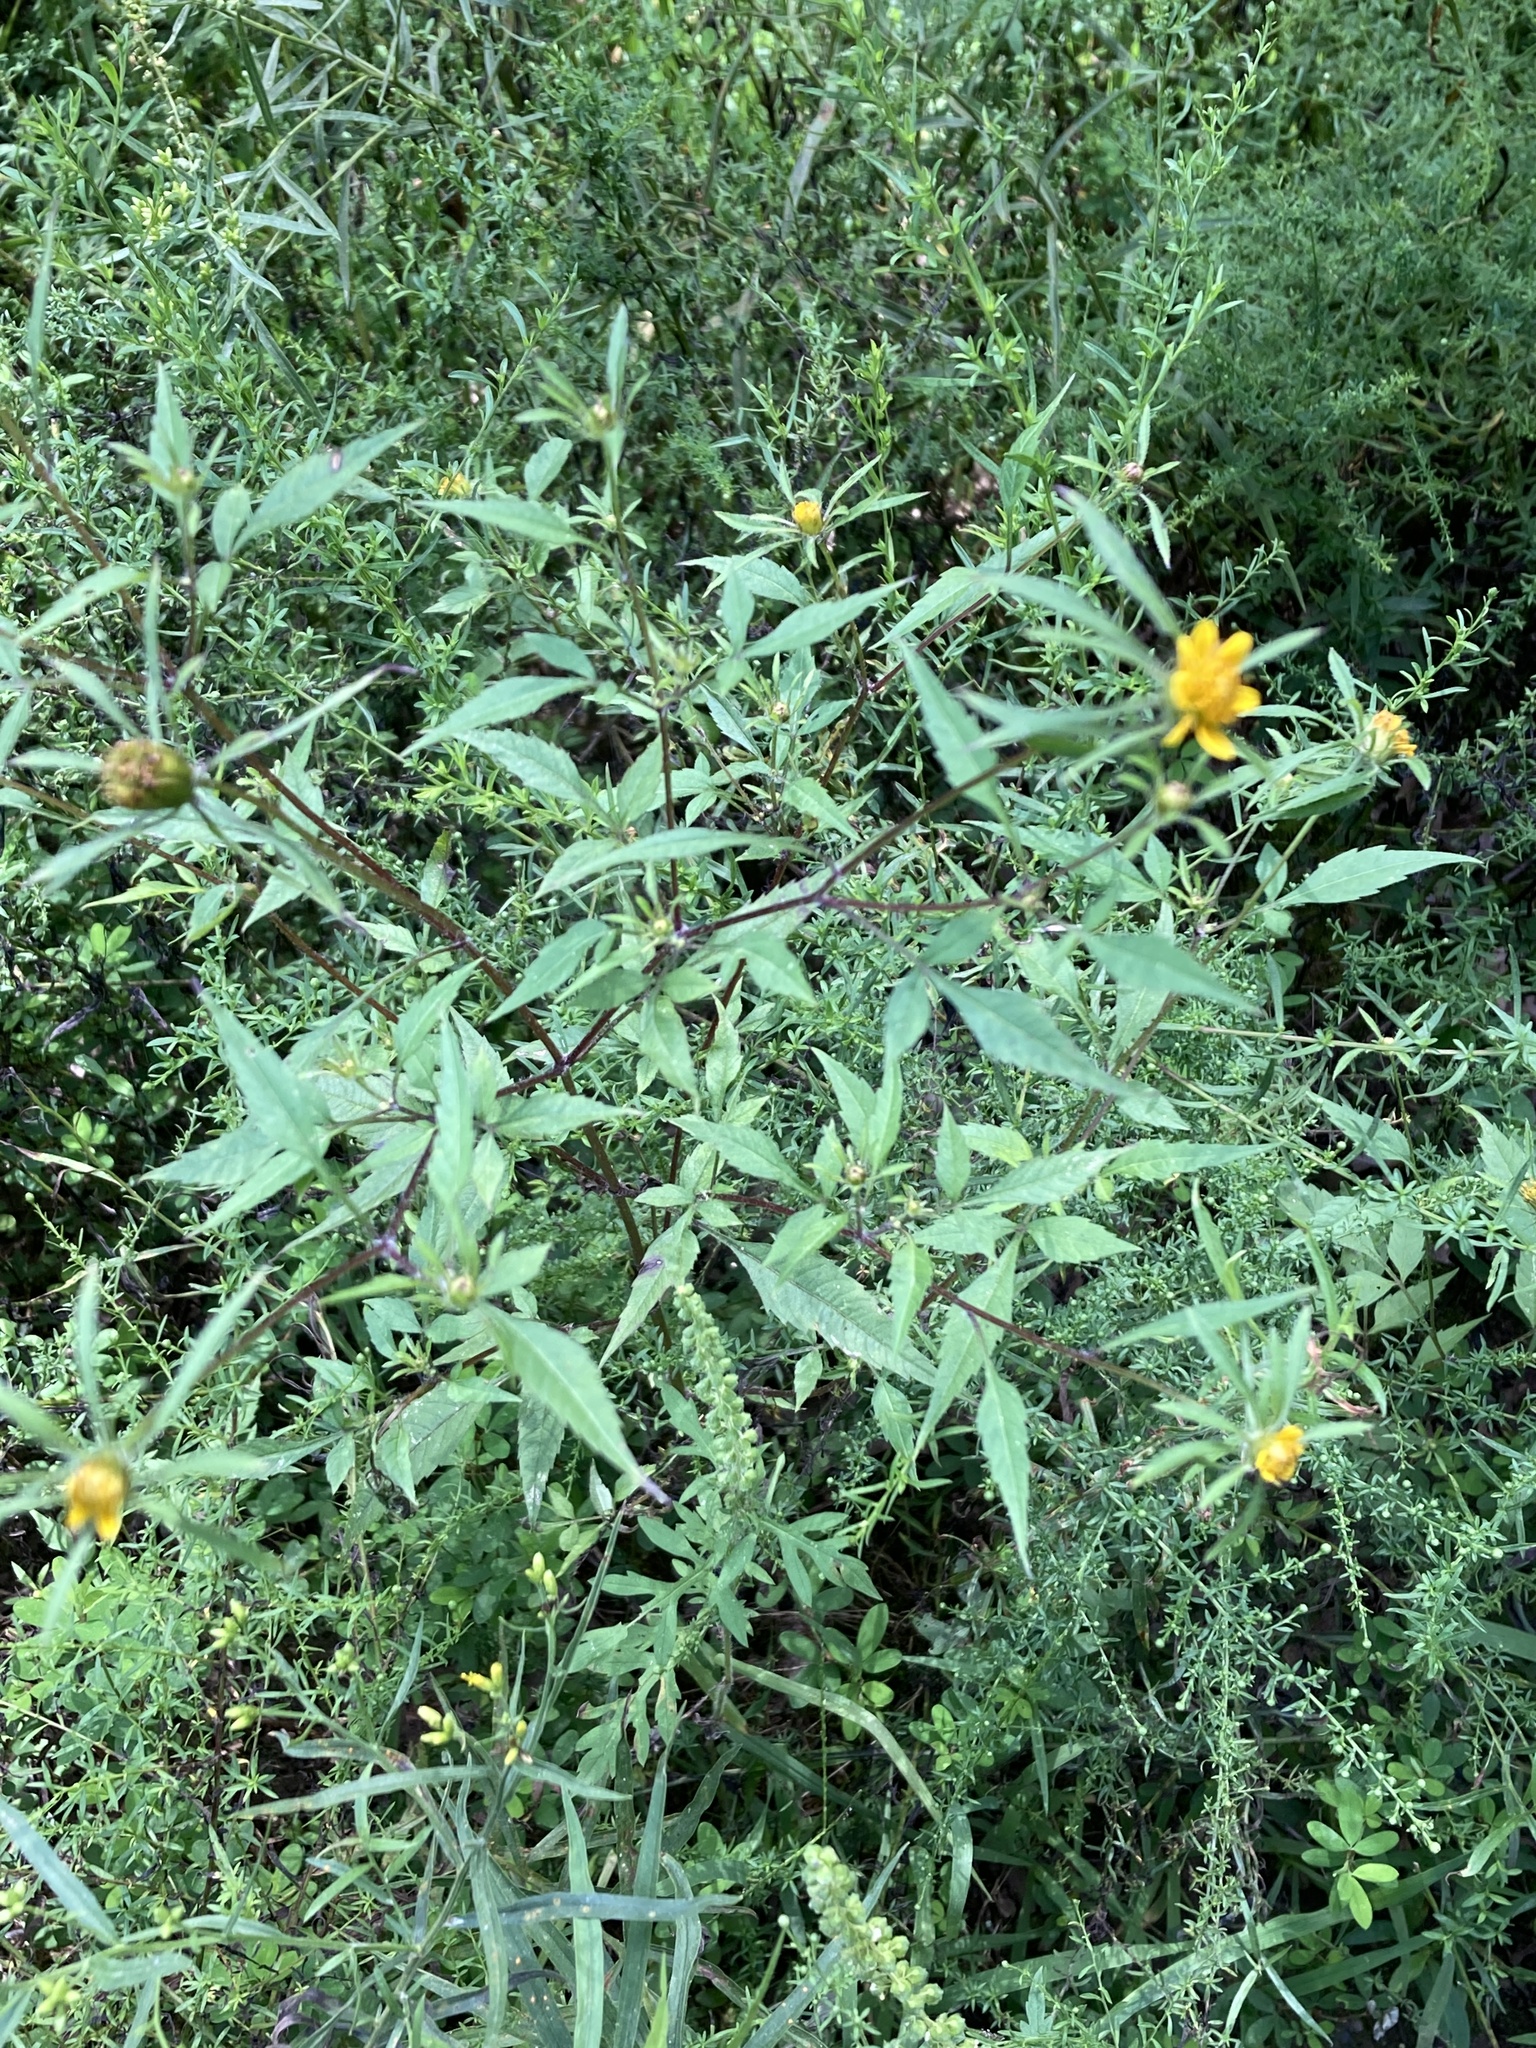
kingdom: Plantae
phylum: Tracheophyta
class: Magnoliopsida
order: Asterales
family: Asteraceae
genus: Bidens
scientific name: Bidens vulgata
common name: Tall beggarticks
